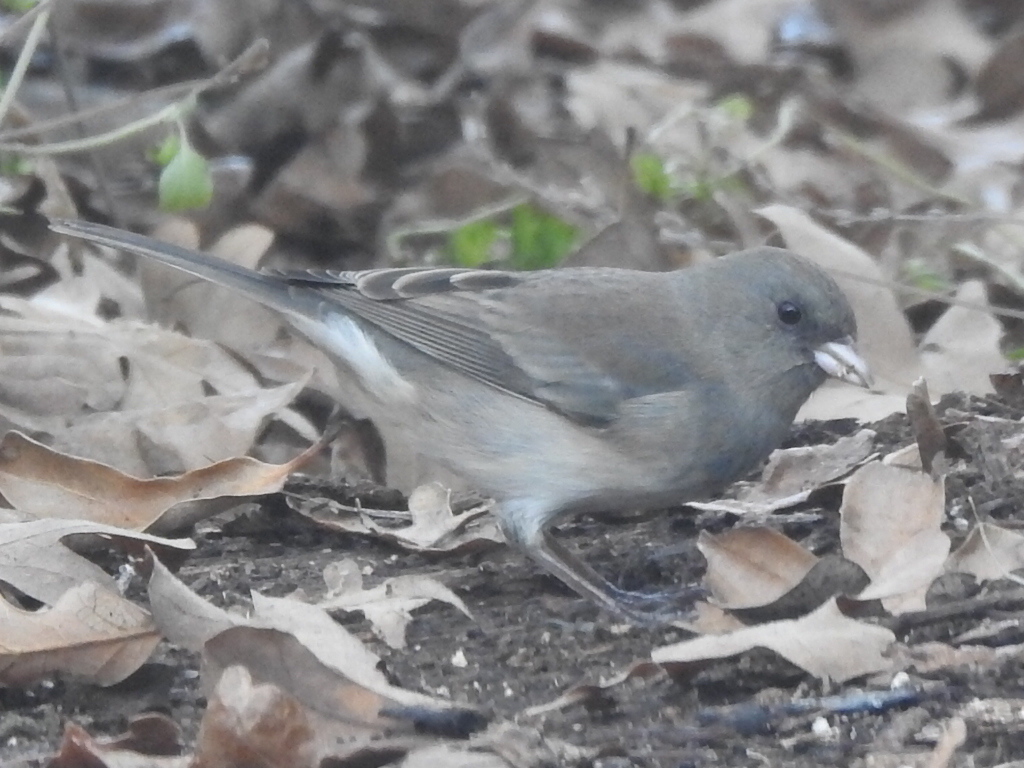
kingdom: Animalia
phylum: Chordata
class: Aves
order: Passeriformes
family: Passerellidae
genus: Junco
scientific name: Junco hyemalis
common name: Dark-eyed junco
